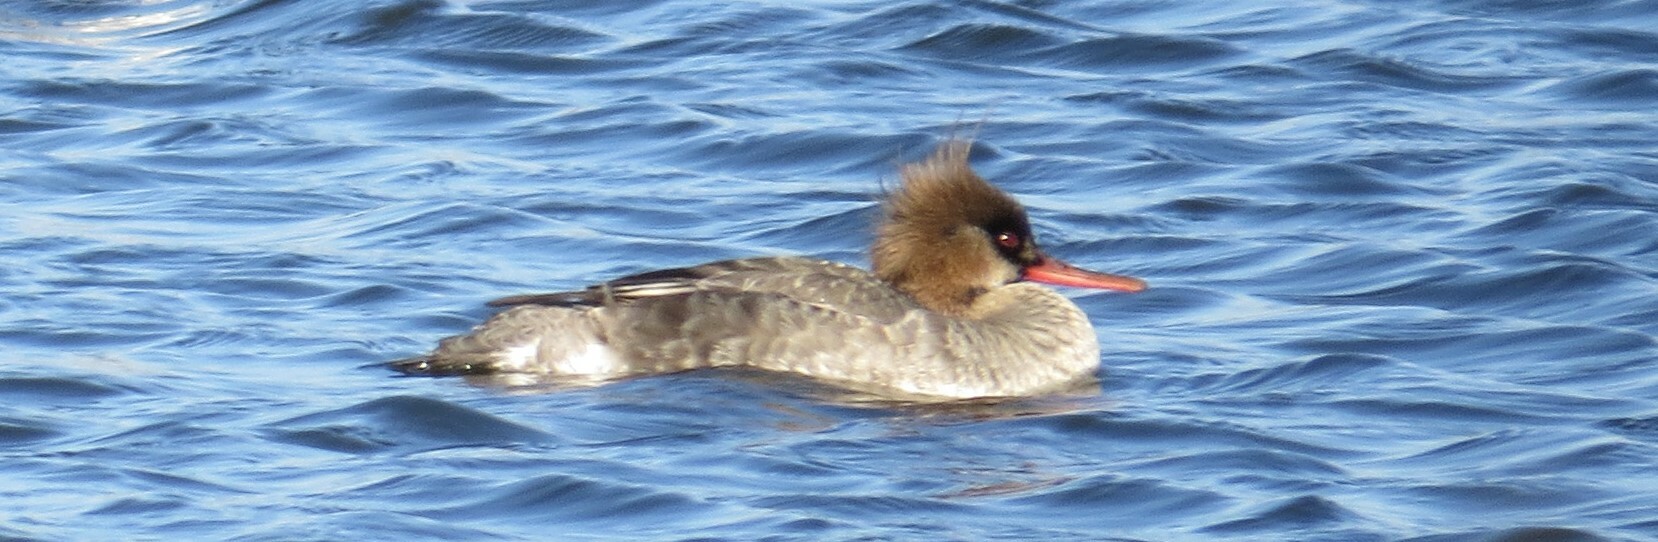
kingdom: Animalia
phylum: Chordata
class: Aves
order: Anseriformes
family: Anatidae
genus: Mergus
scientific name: Mergus serrator
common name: Red-breasted merganser
